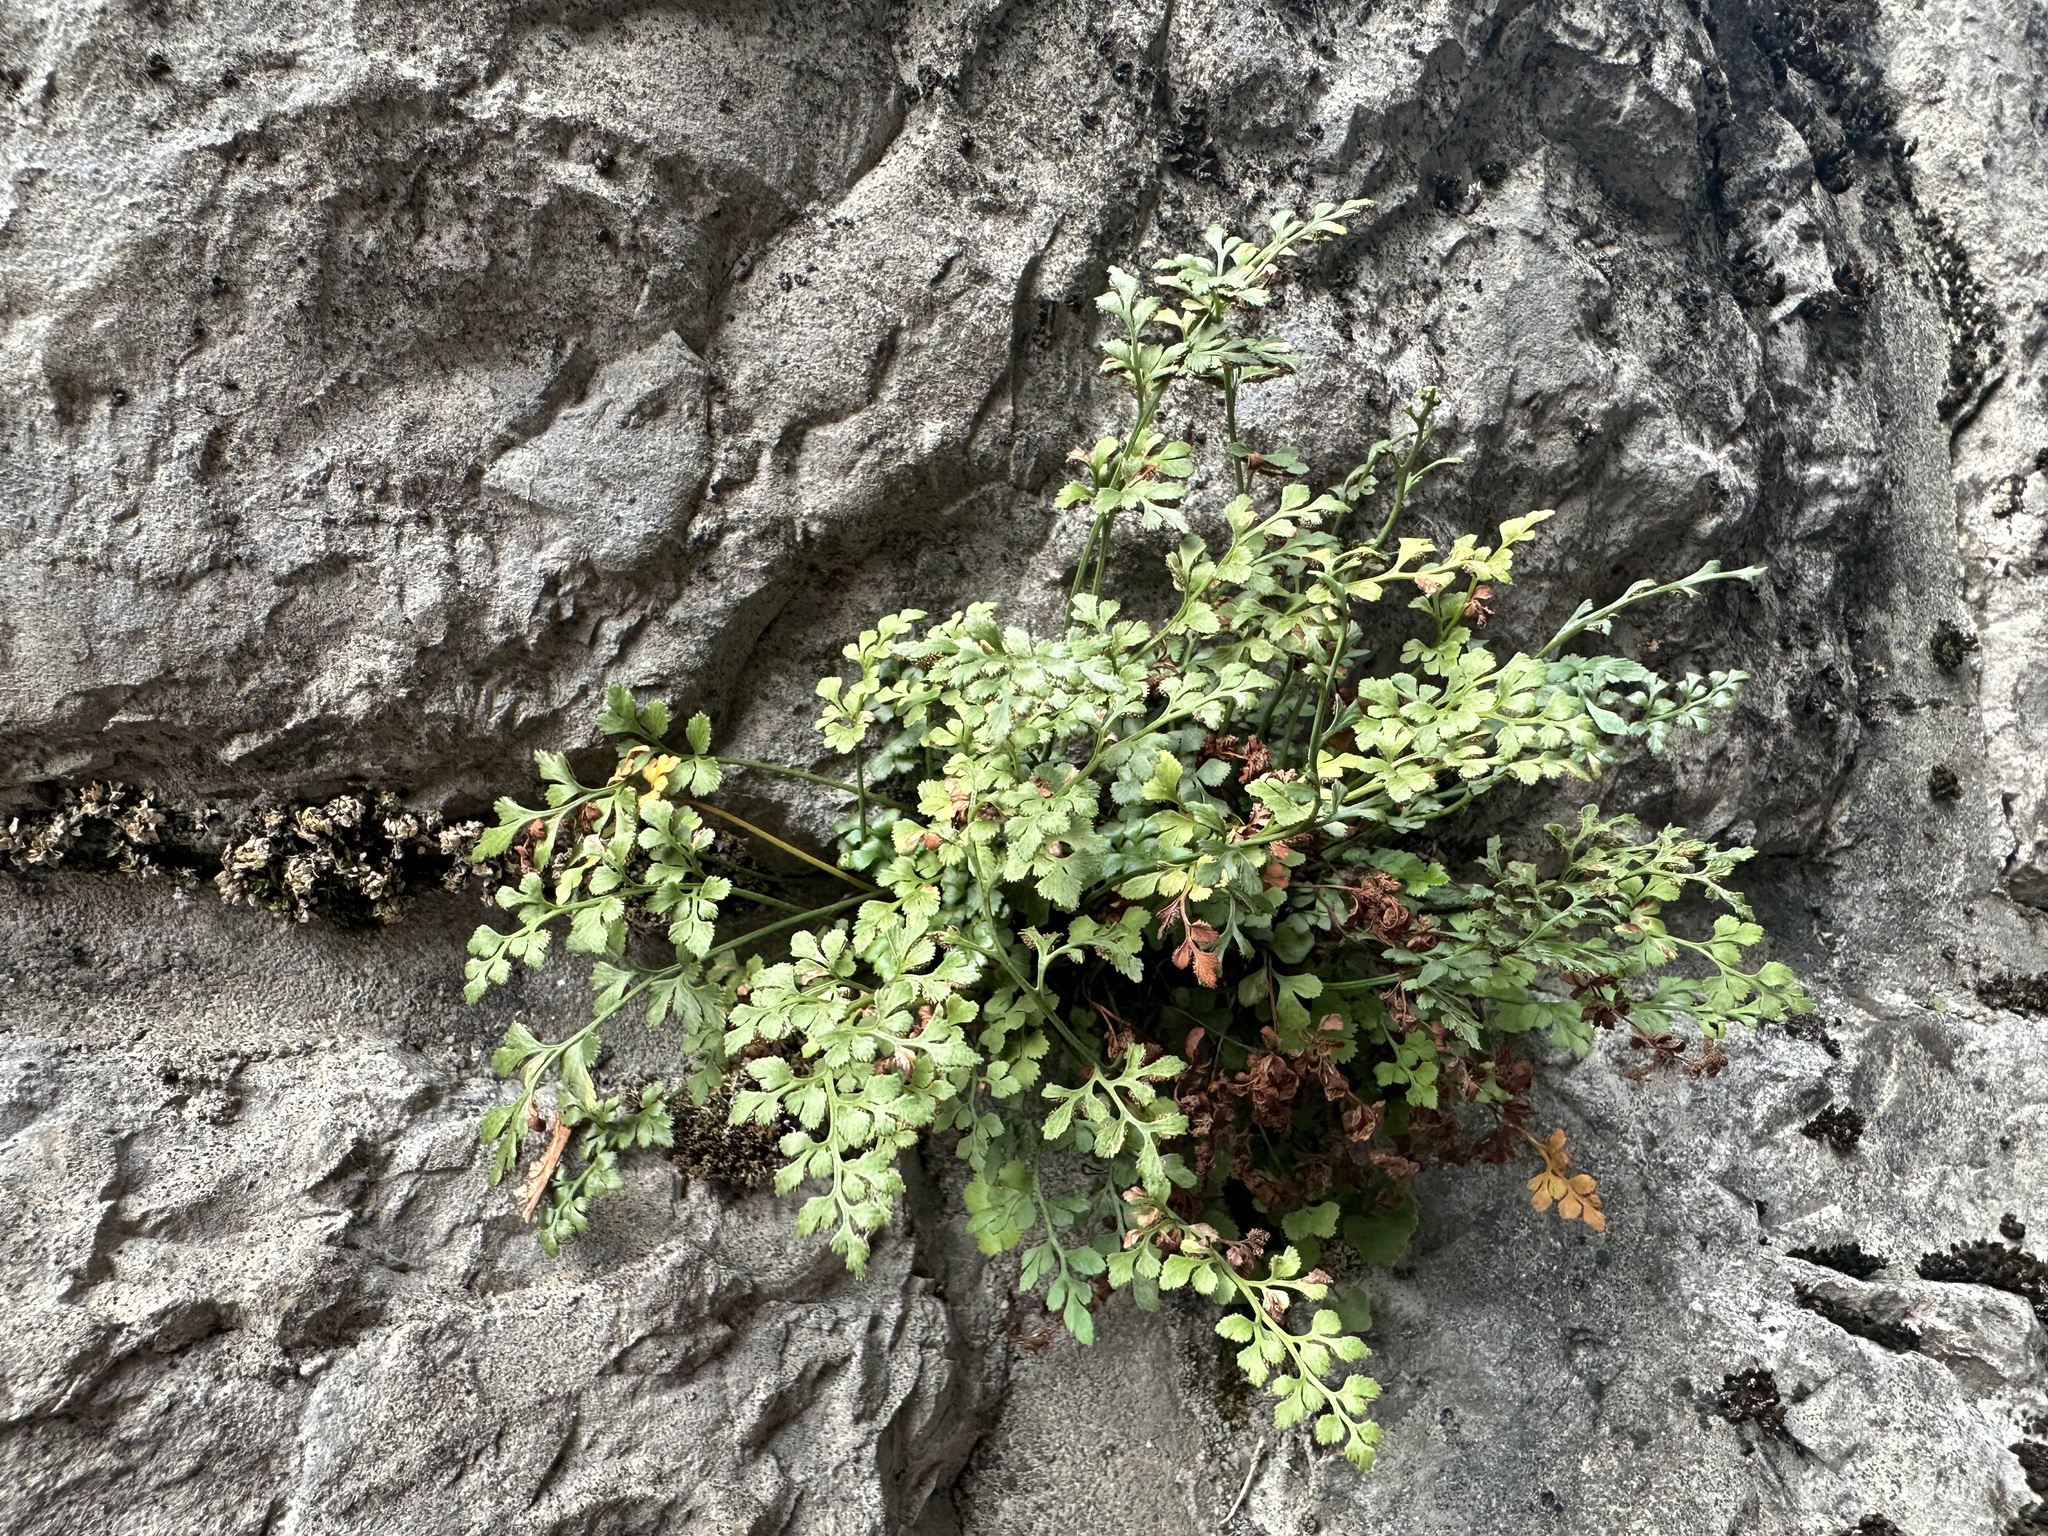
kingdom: Plantae
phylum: Tracheophyta
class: Polypodiopsida
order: Polypodiales
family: Aspleniaceae
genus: Asplenium
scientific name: Asplenium ruta-muraria
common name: Wall-rue
